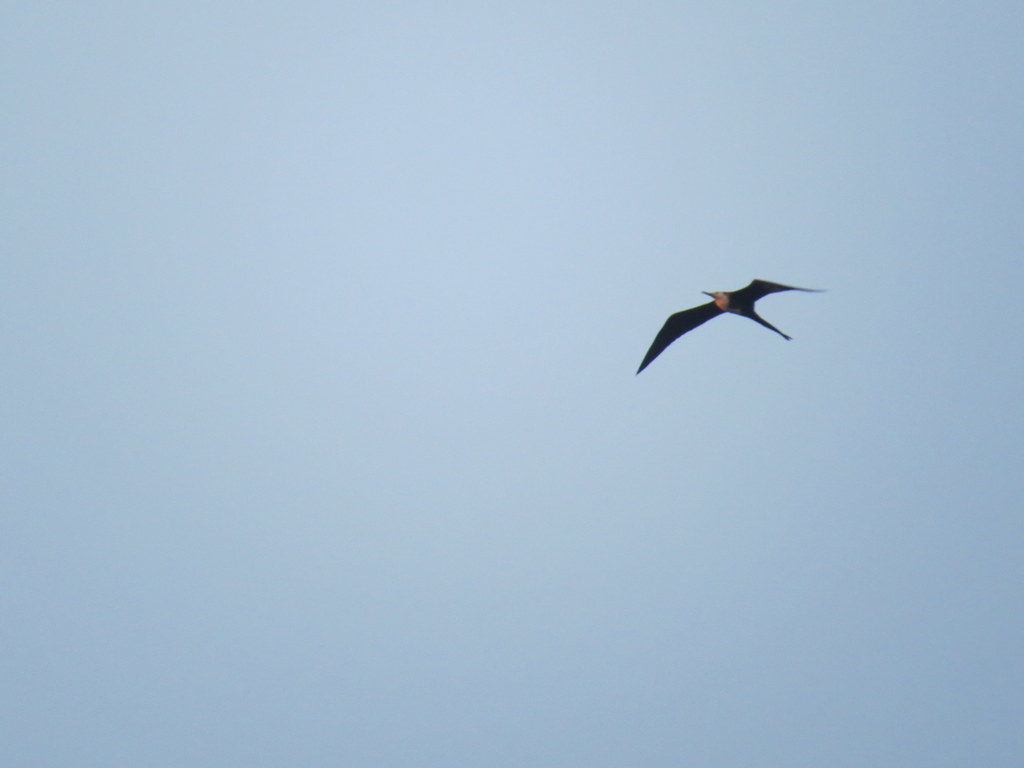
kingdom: Animalia
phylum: Chordata
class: Aves
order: Suliformes
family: Fregatidae
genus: Fregata
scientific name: Fregata magnificens
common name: Magnificent frigatebird
